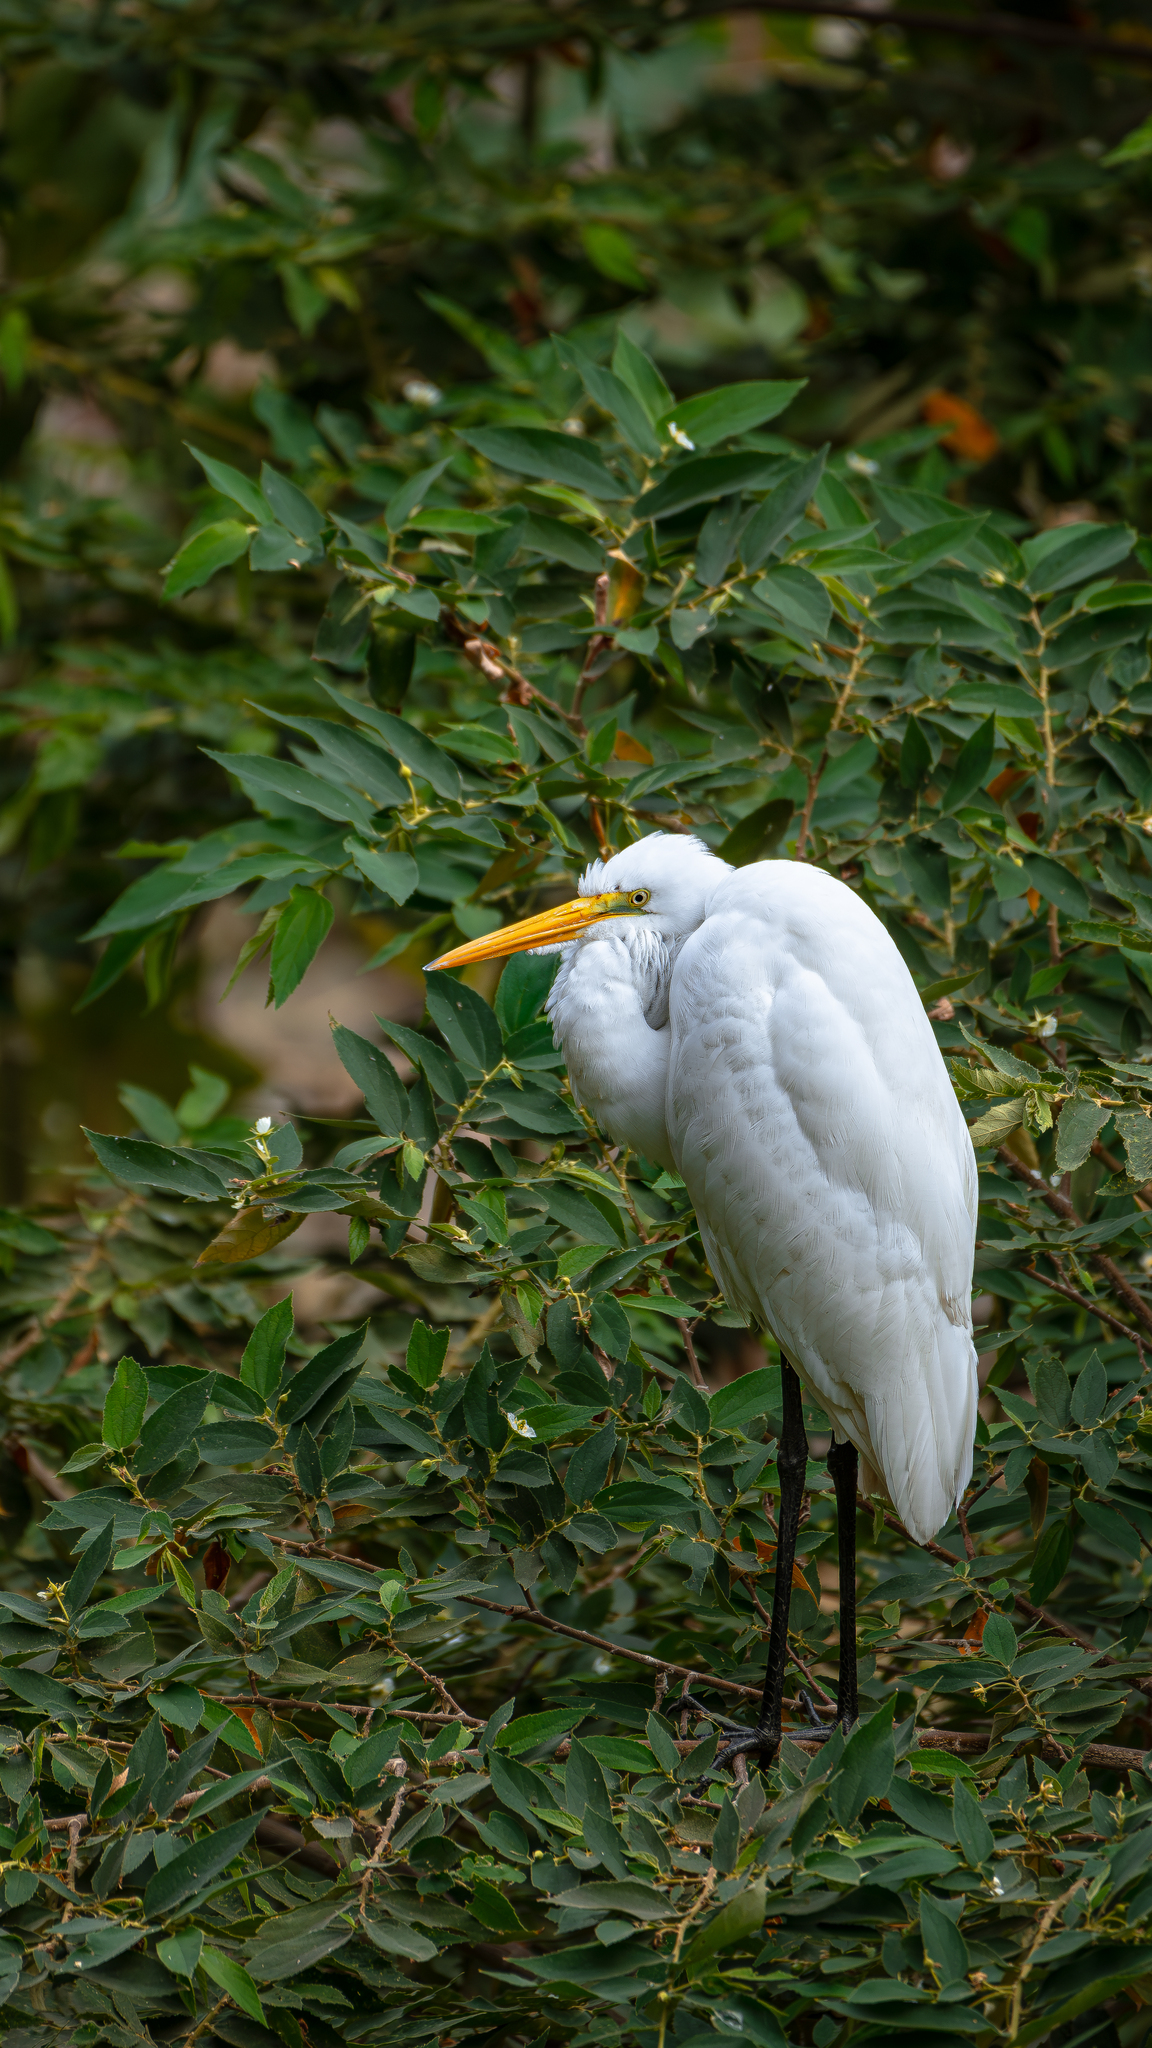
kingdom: Animalia
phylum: Chordata
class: Aves
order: Pelecaniformes
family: Ardeidae
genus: Ardea
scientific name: Ardea alba
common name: Great egret
